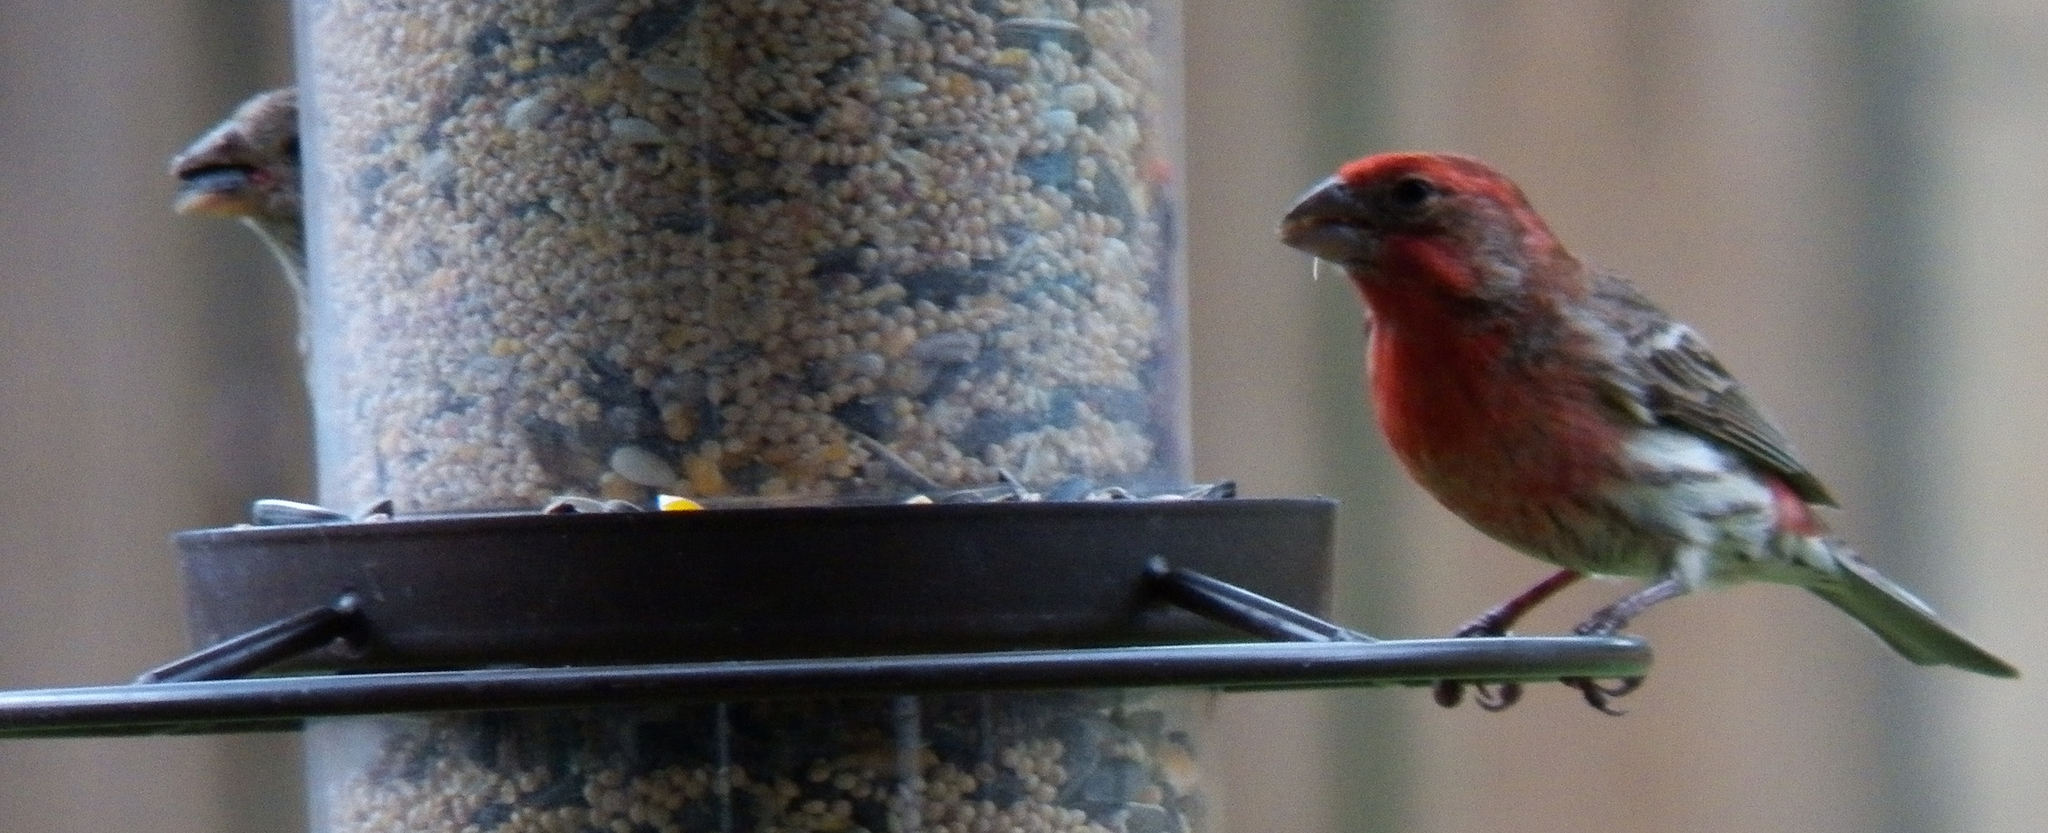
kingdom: Animalia
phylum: Chordata
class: Aves
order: Passeriformes
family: Fringillidae
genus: Haemorhous
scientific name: Haemorhous mexicanus
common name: House finch
